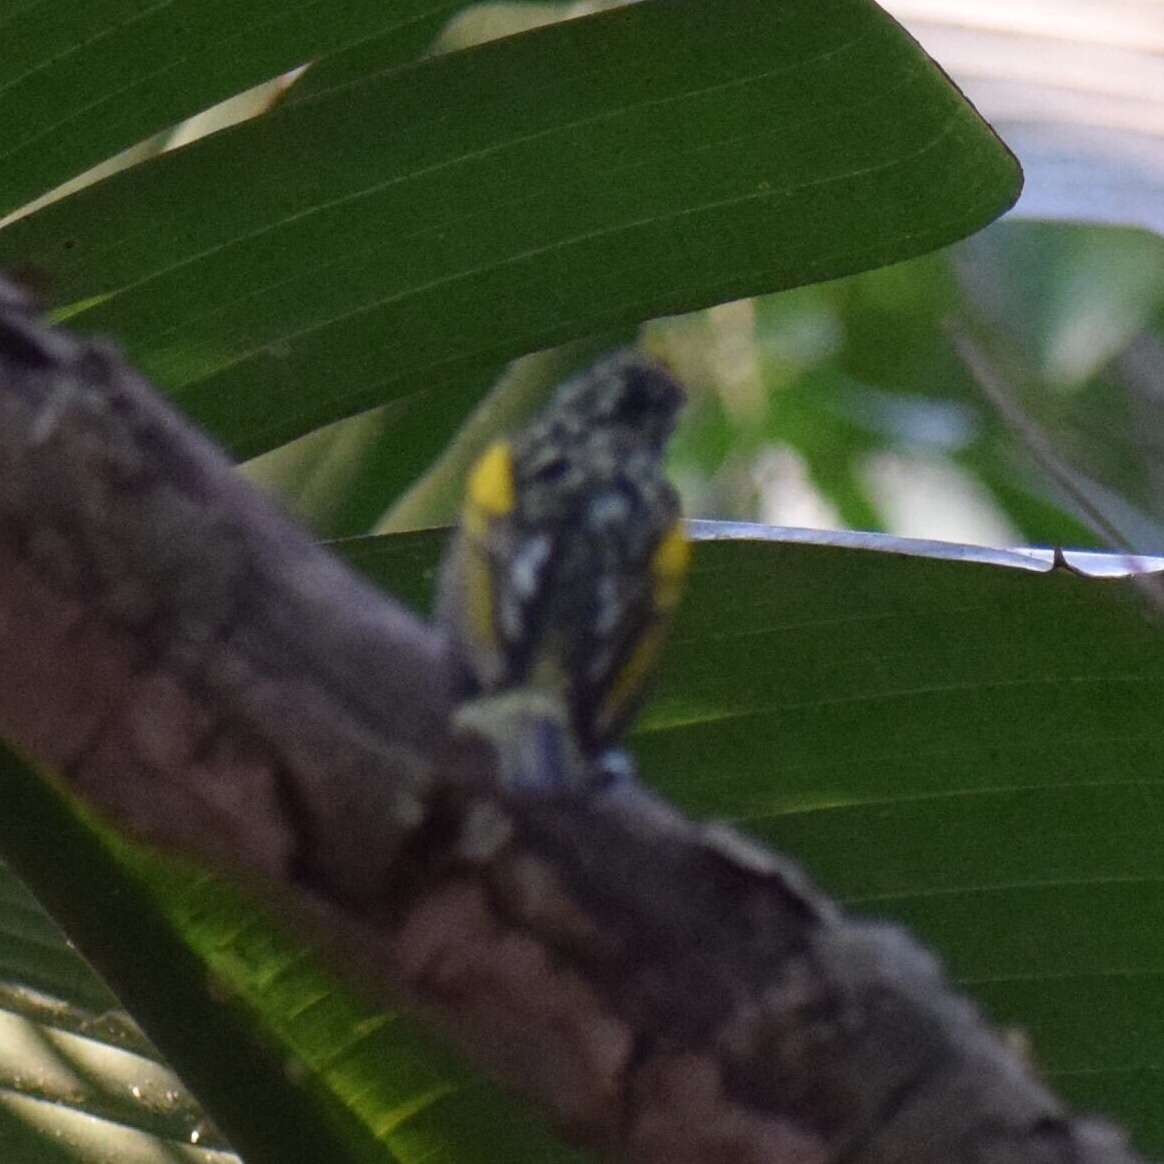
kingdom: Animalia
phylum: Chordata
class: Aves
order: Piciformes
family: Lybiidae
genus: Pogoniulus
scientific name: Pogoniulus pusillus
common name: Red-fronted tinkerbird
